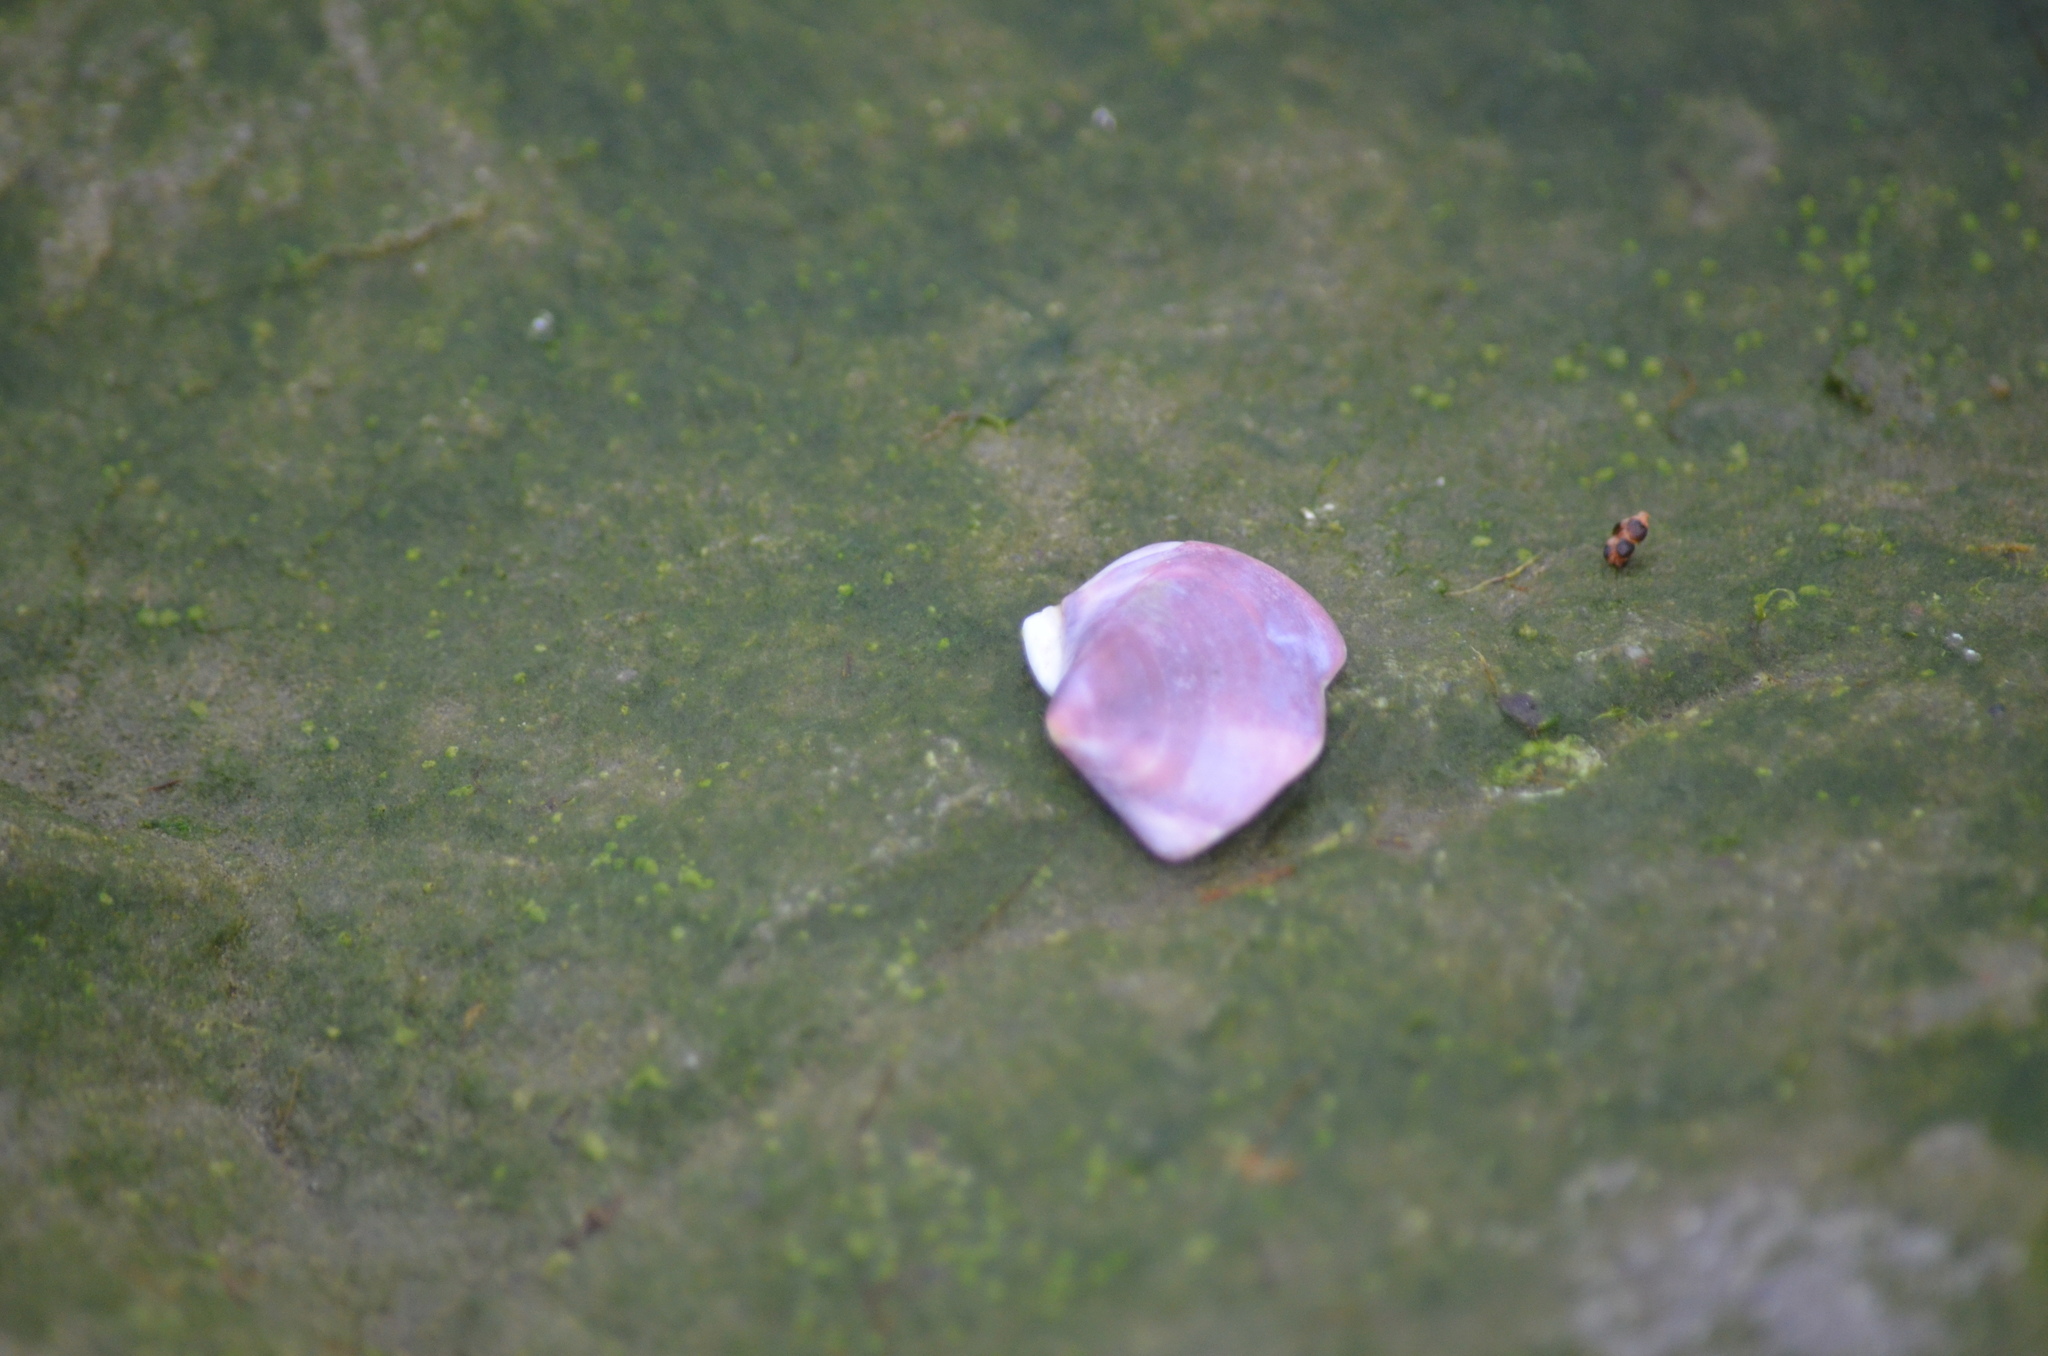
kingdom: Animalia
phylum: Mollusca
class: Bivalvia
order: Cardiida
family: Psammobiidae
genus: Nuttallia
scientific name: Nuttallia obscurata
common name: Purple mahogany-clam
